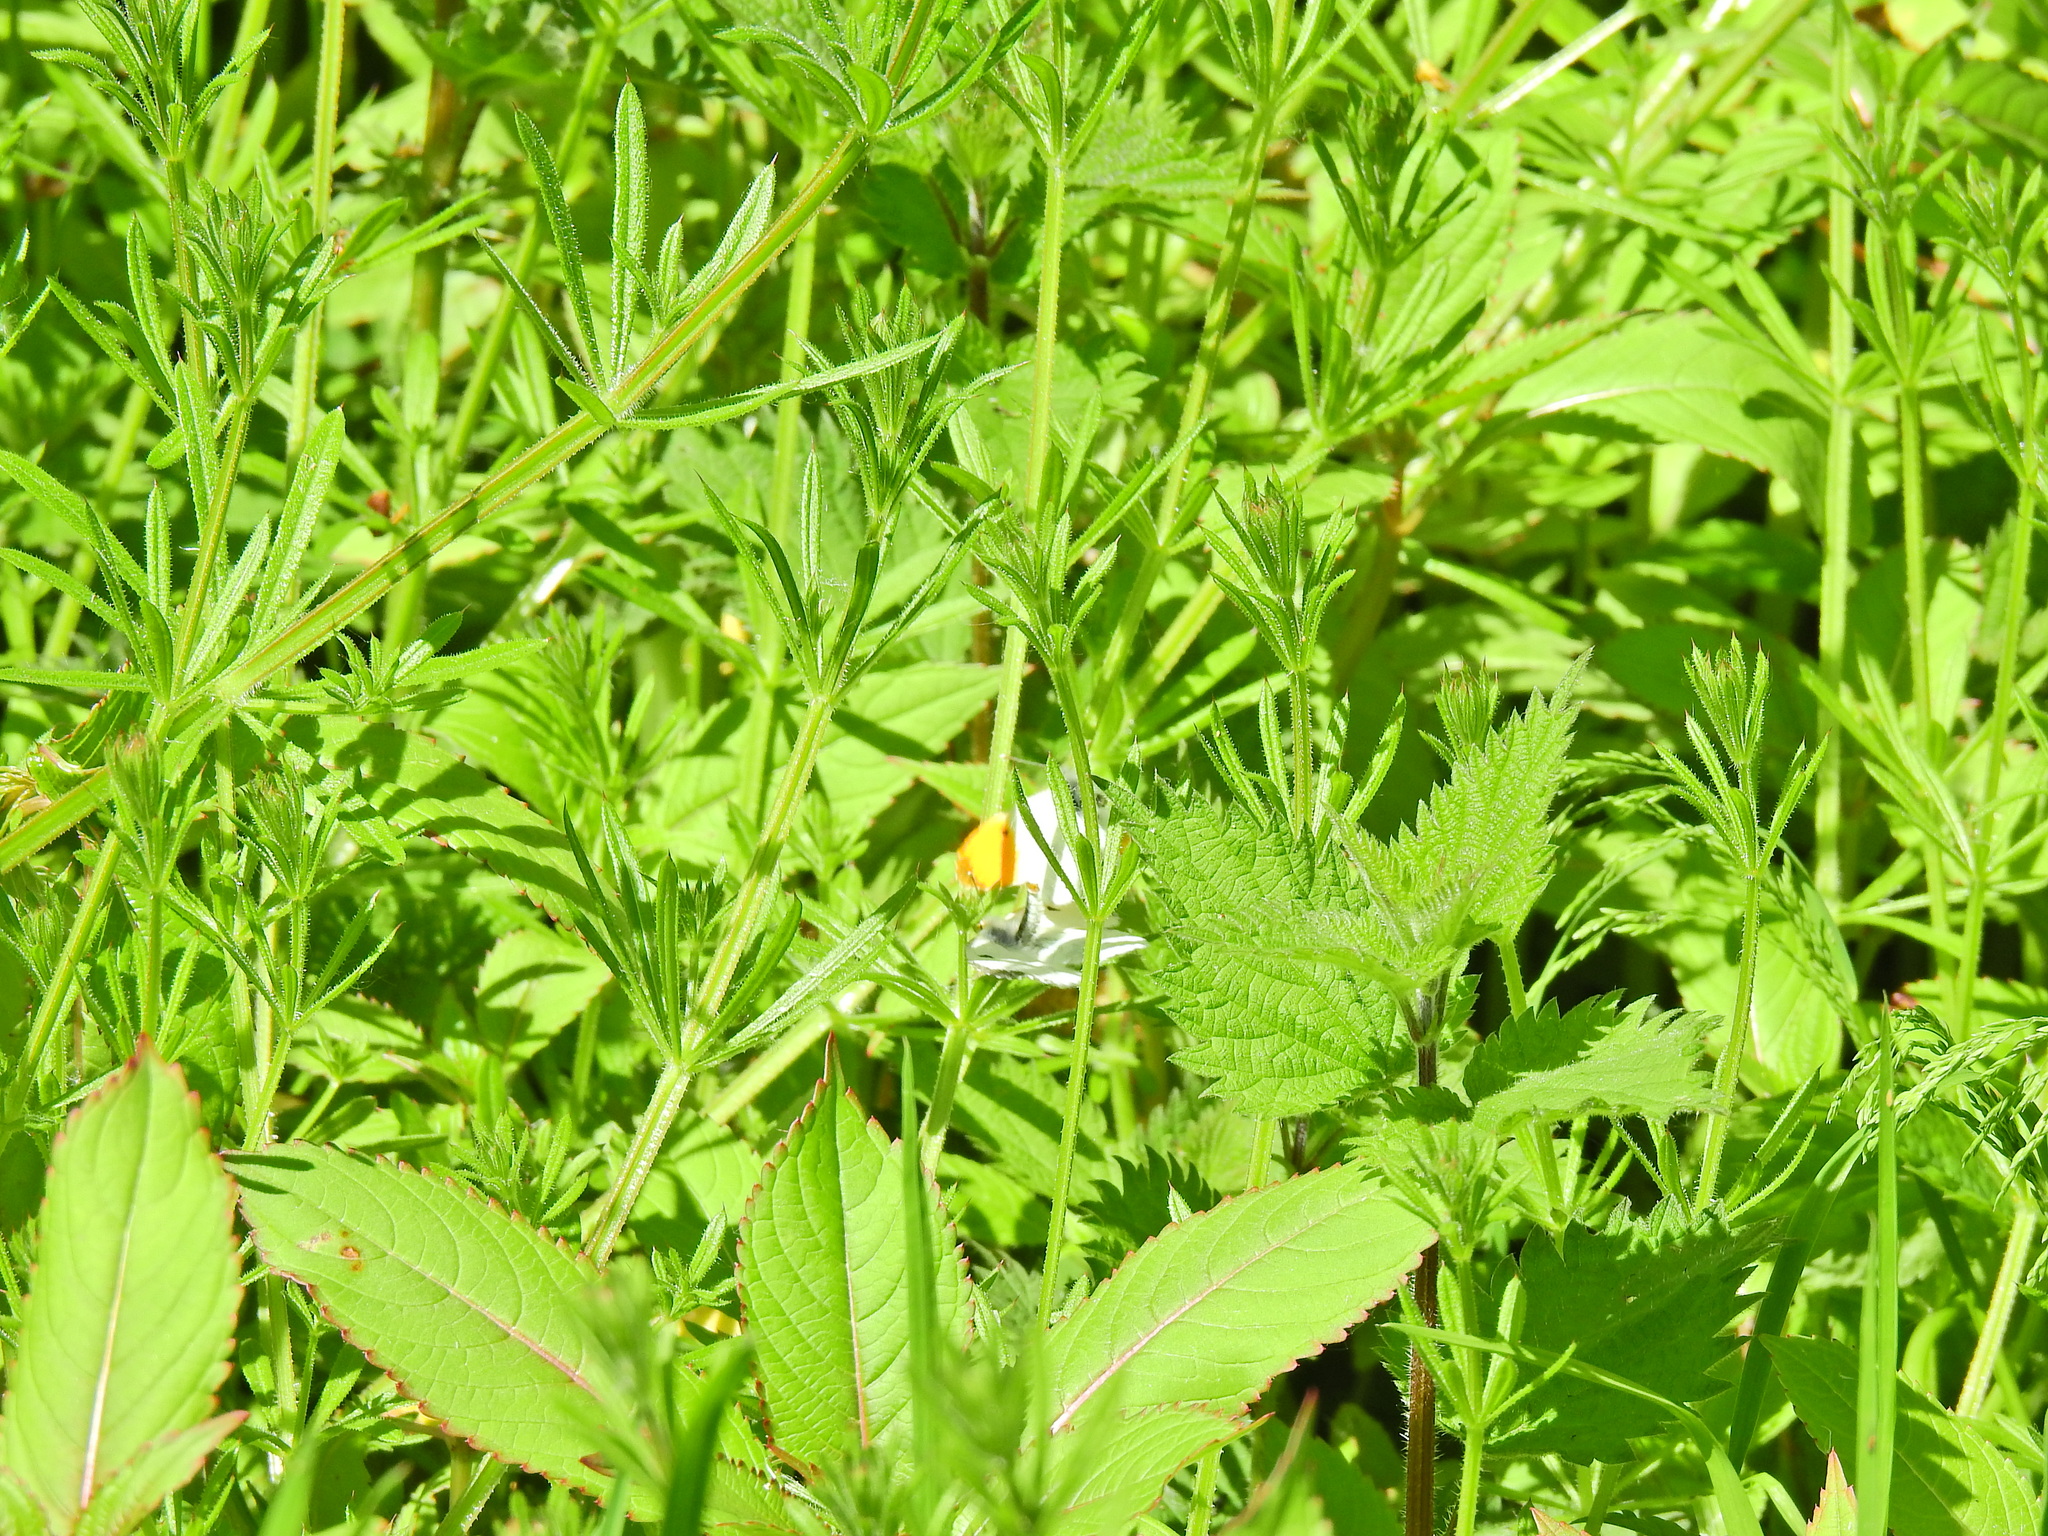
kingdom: Animalia
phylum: Arthropoda
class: Insecta
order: Lepidoptera
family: Pieridae
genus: Anthocharis
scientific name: Anthocharis cardamines
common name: Orange-tip
